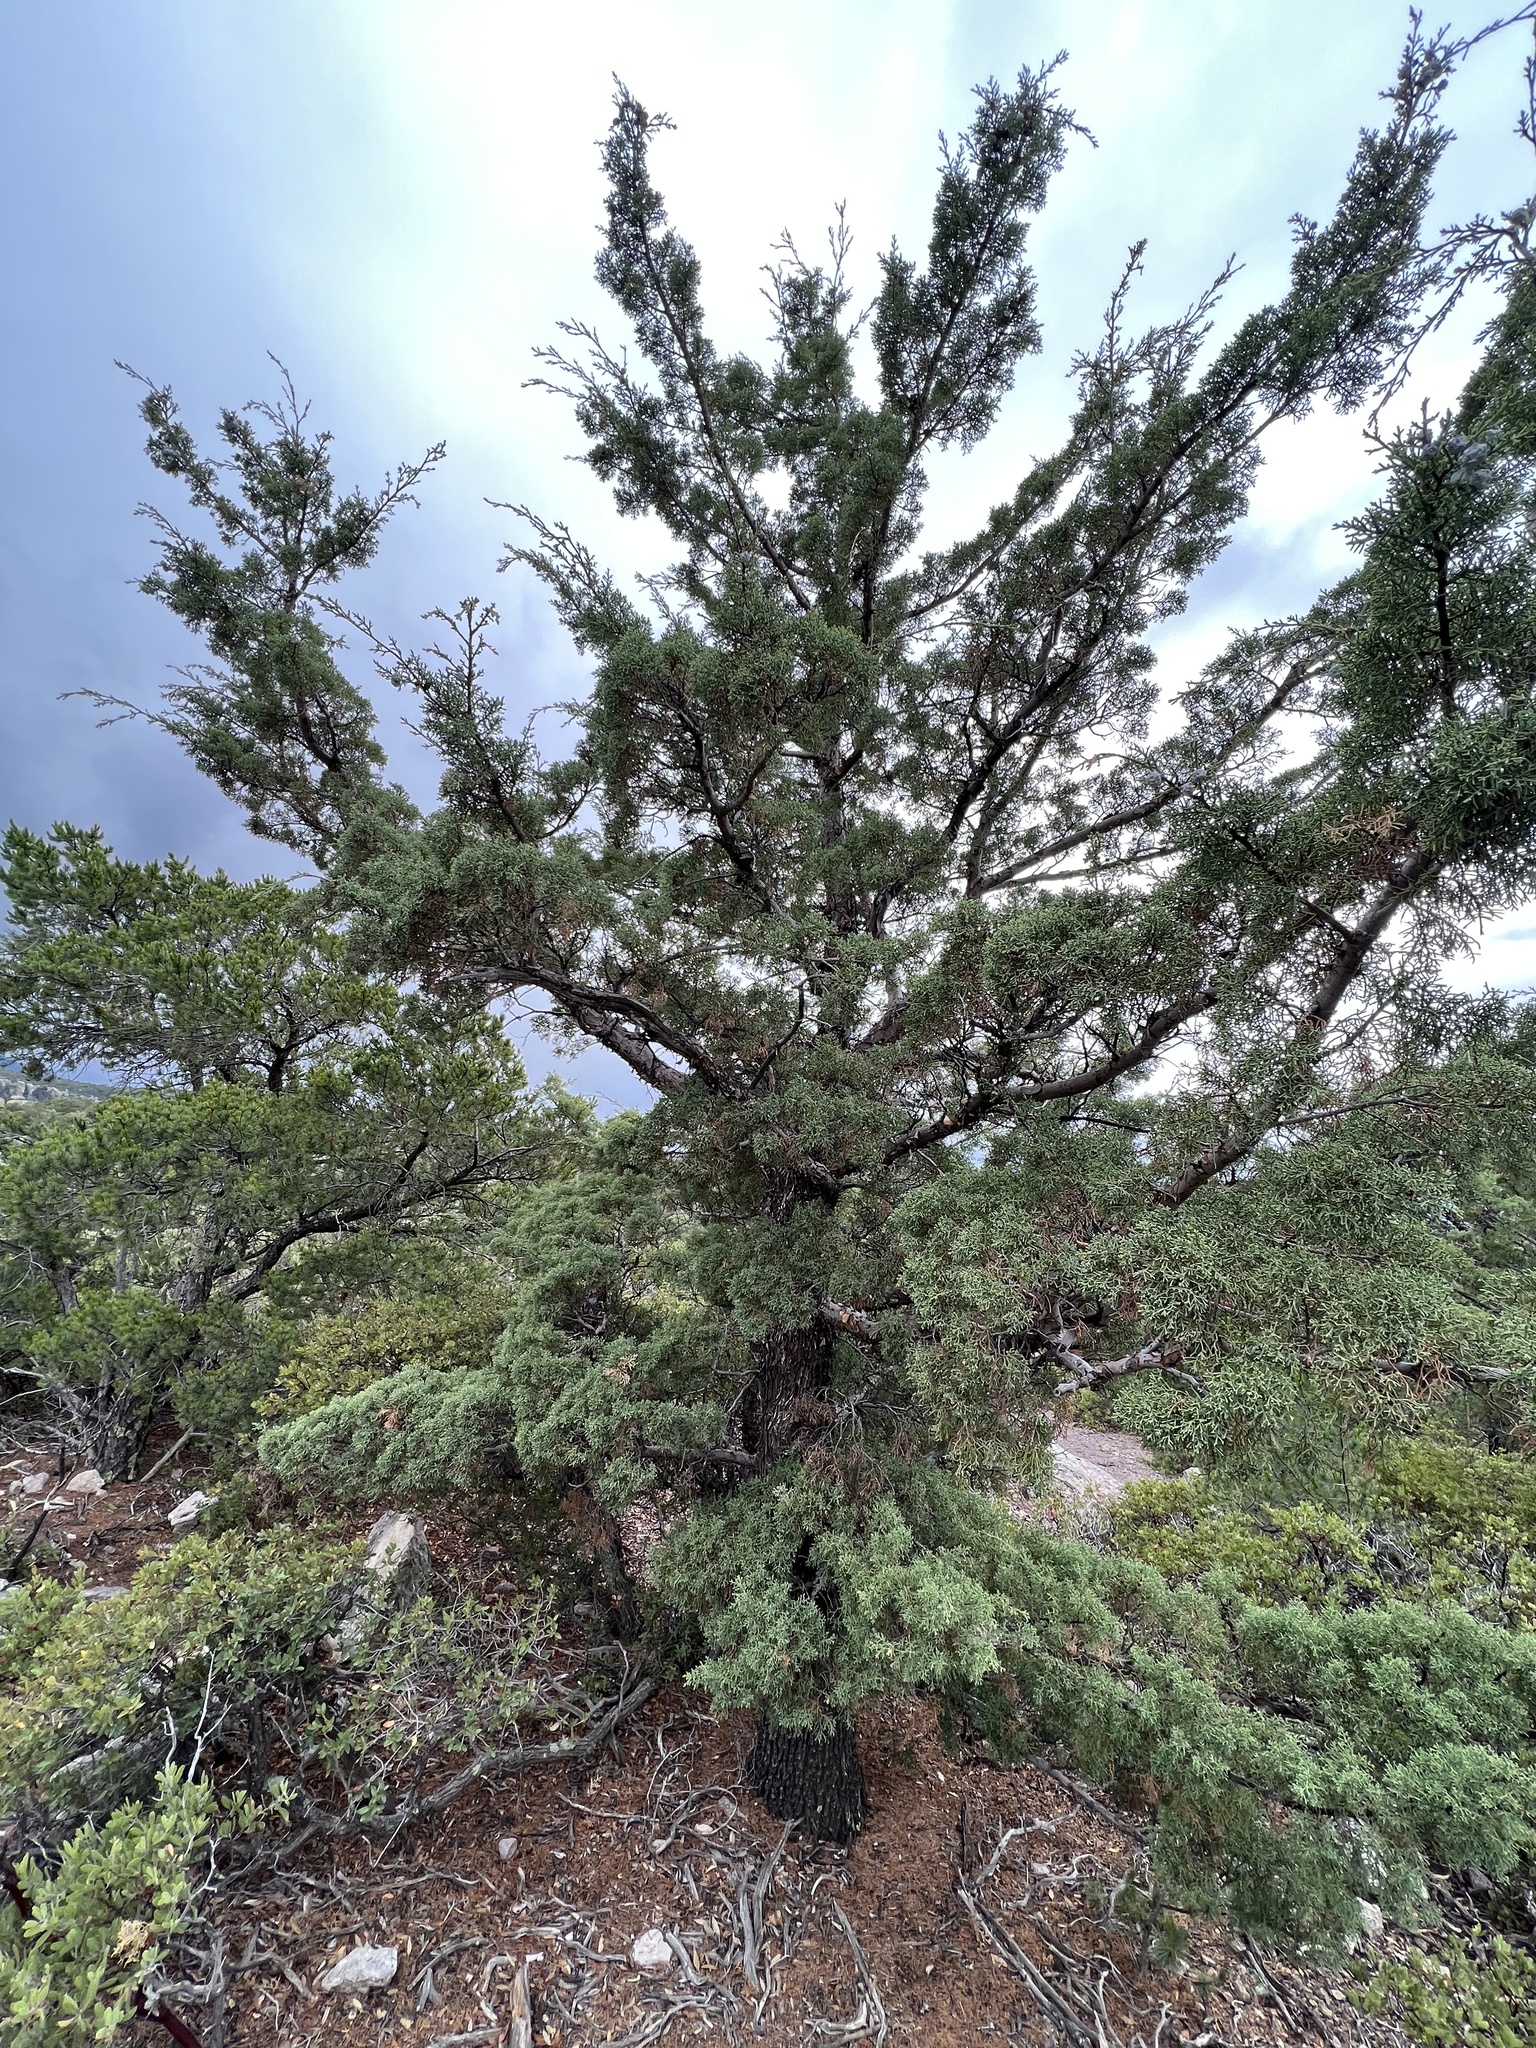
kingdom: Plantae
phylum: Tracheophyta
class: Pinopsida
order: Pinales
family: Cupressaceae
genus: Cupressus
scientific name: Cupressus arizonica
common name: Arizona cypress
